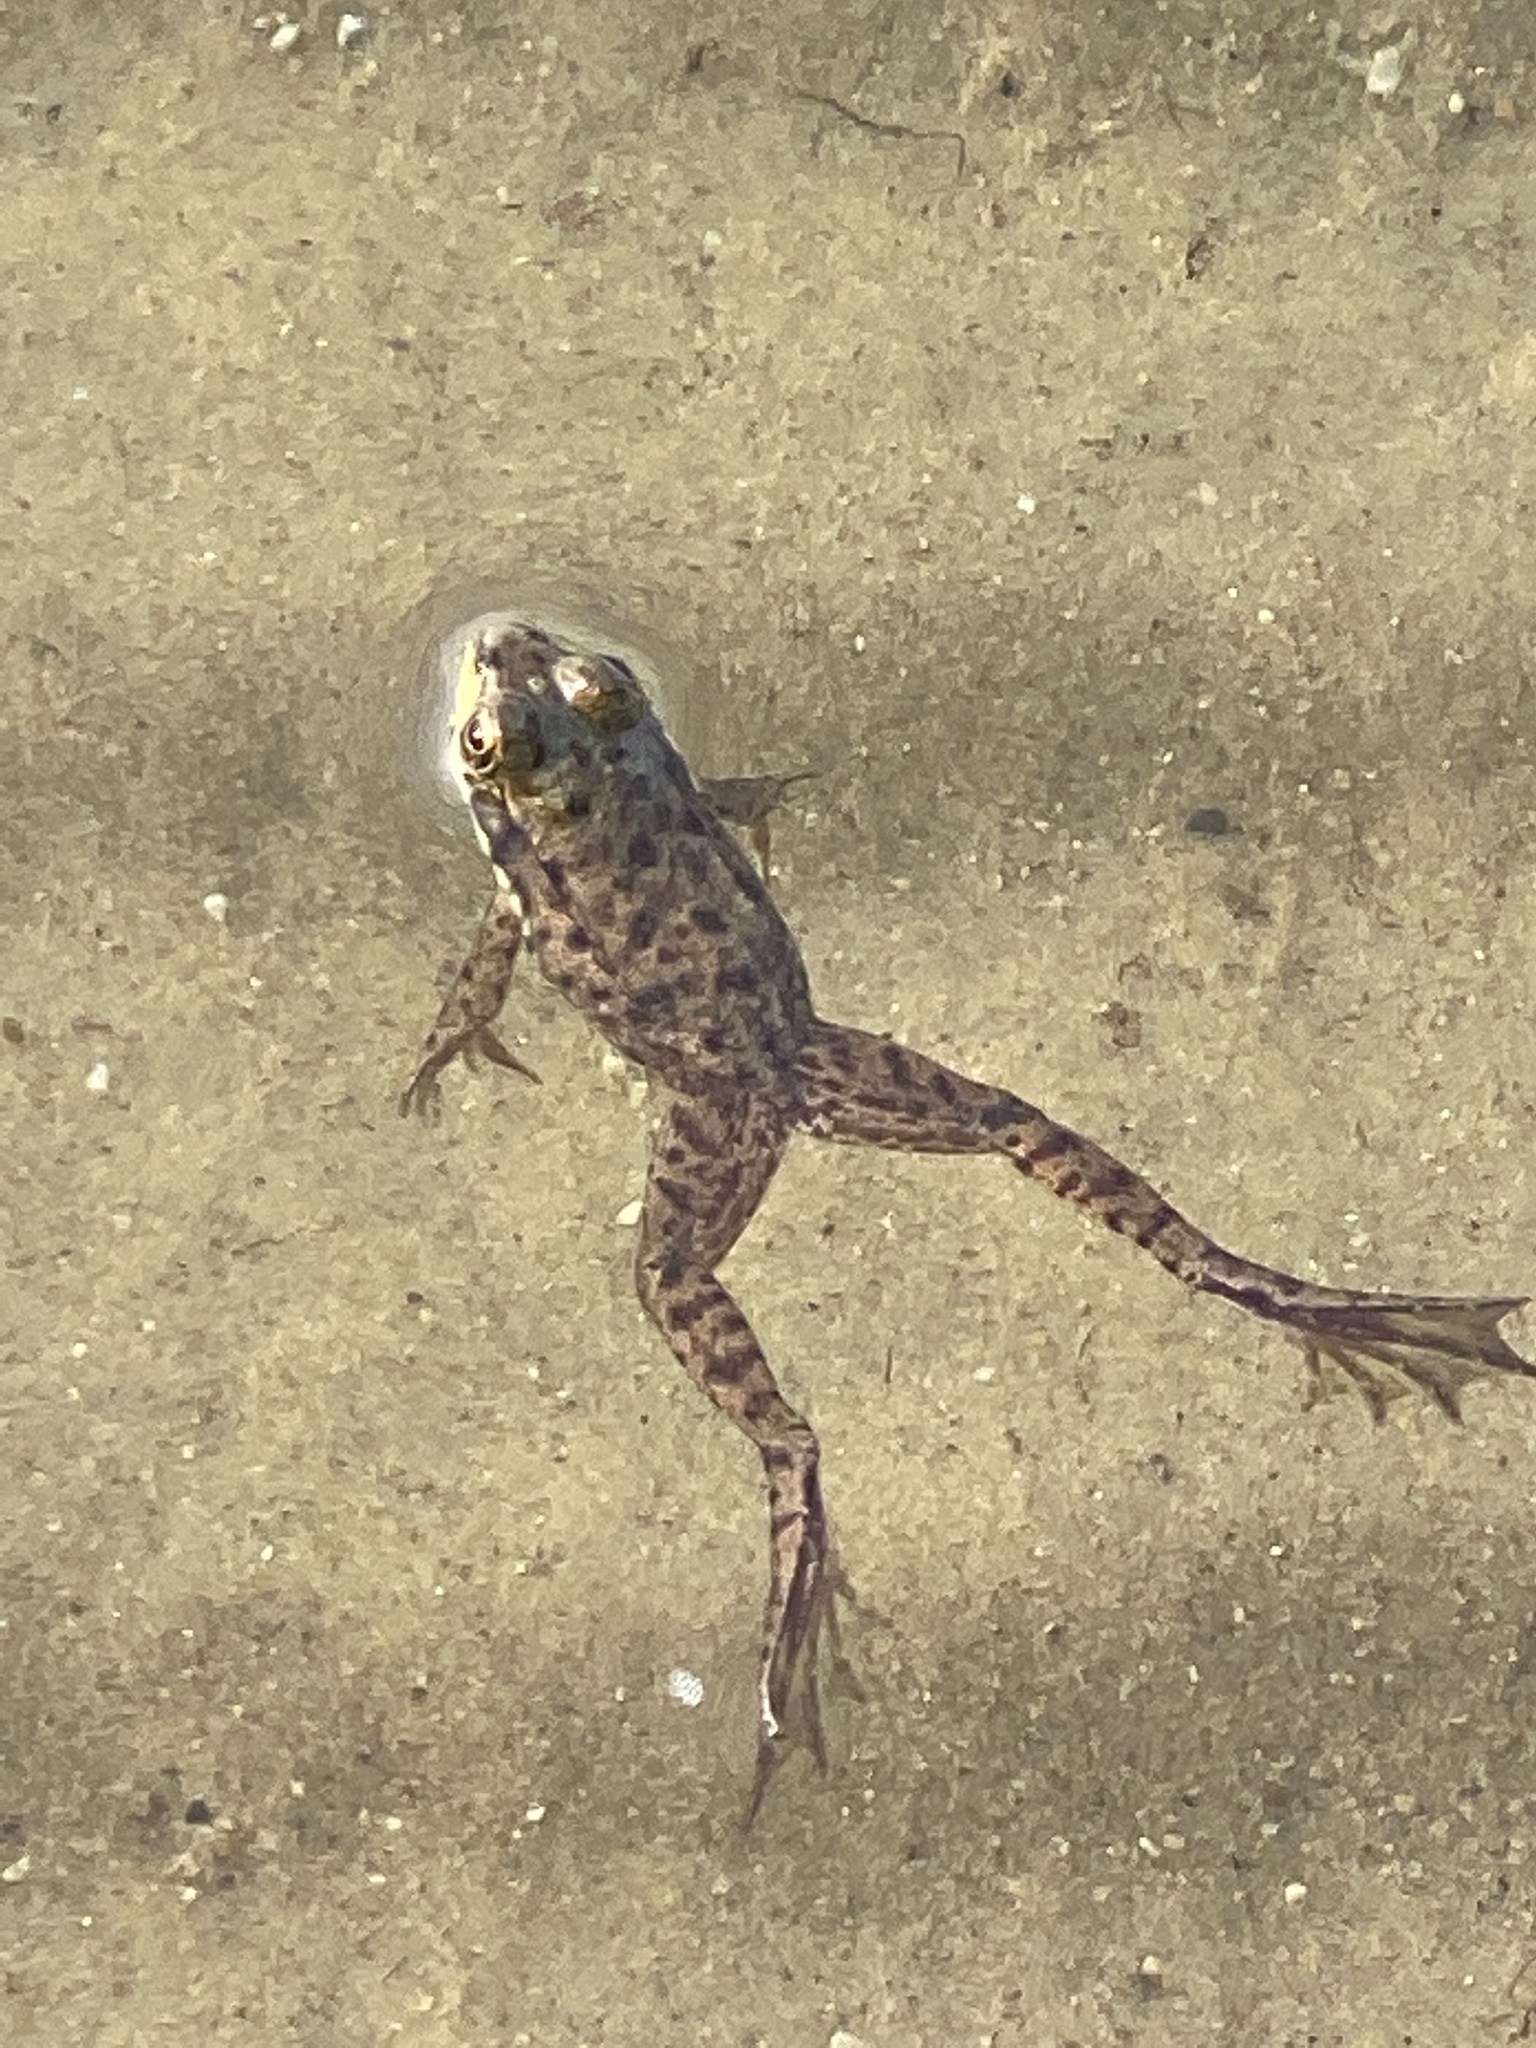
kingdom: Animalia
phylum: Chordata
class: Amphibia
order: Anura
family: Ranidae
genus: Lithobates
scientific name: Lithobates clamitans
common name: Green frog
